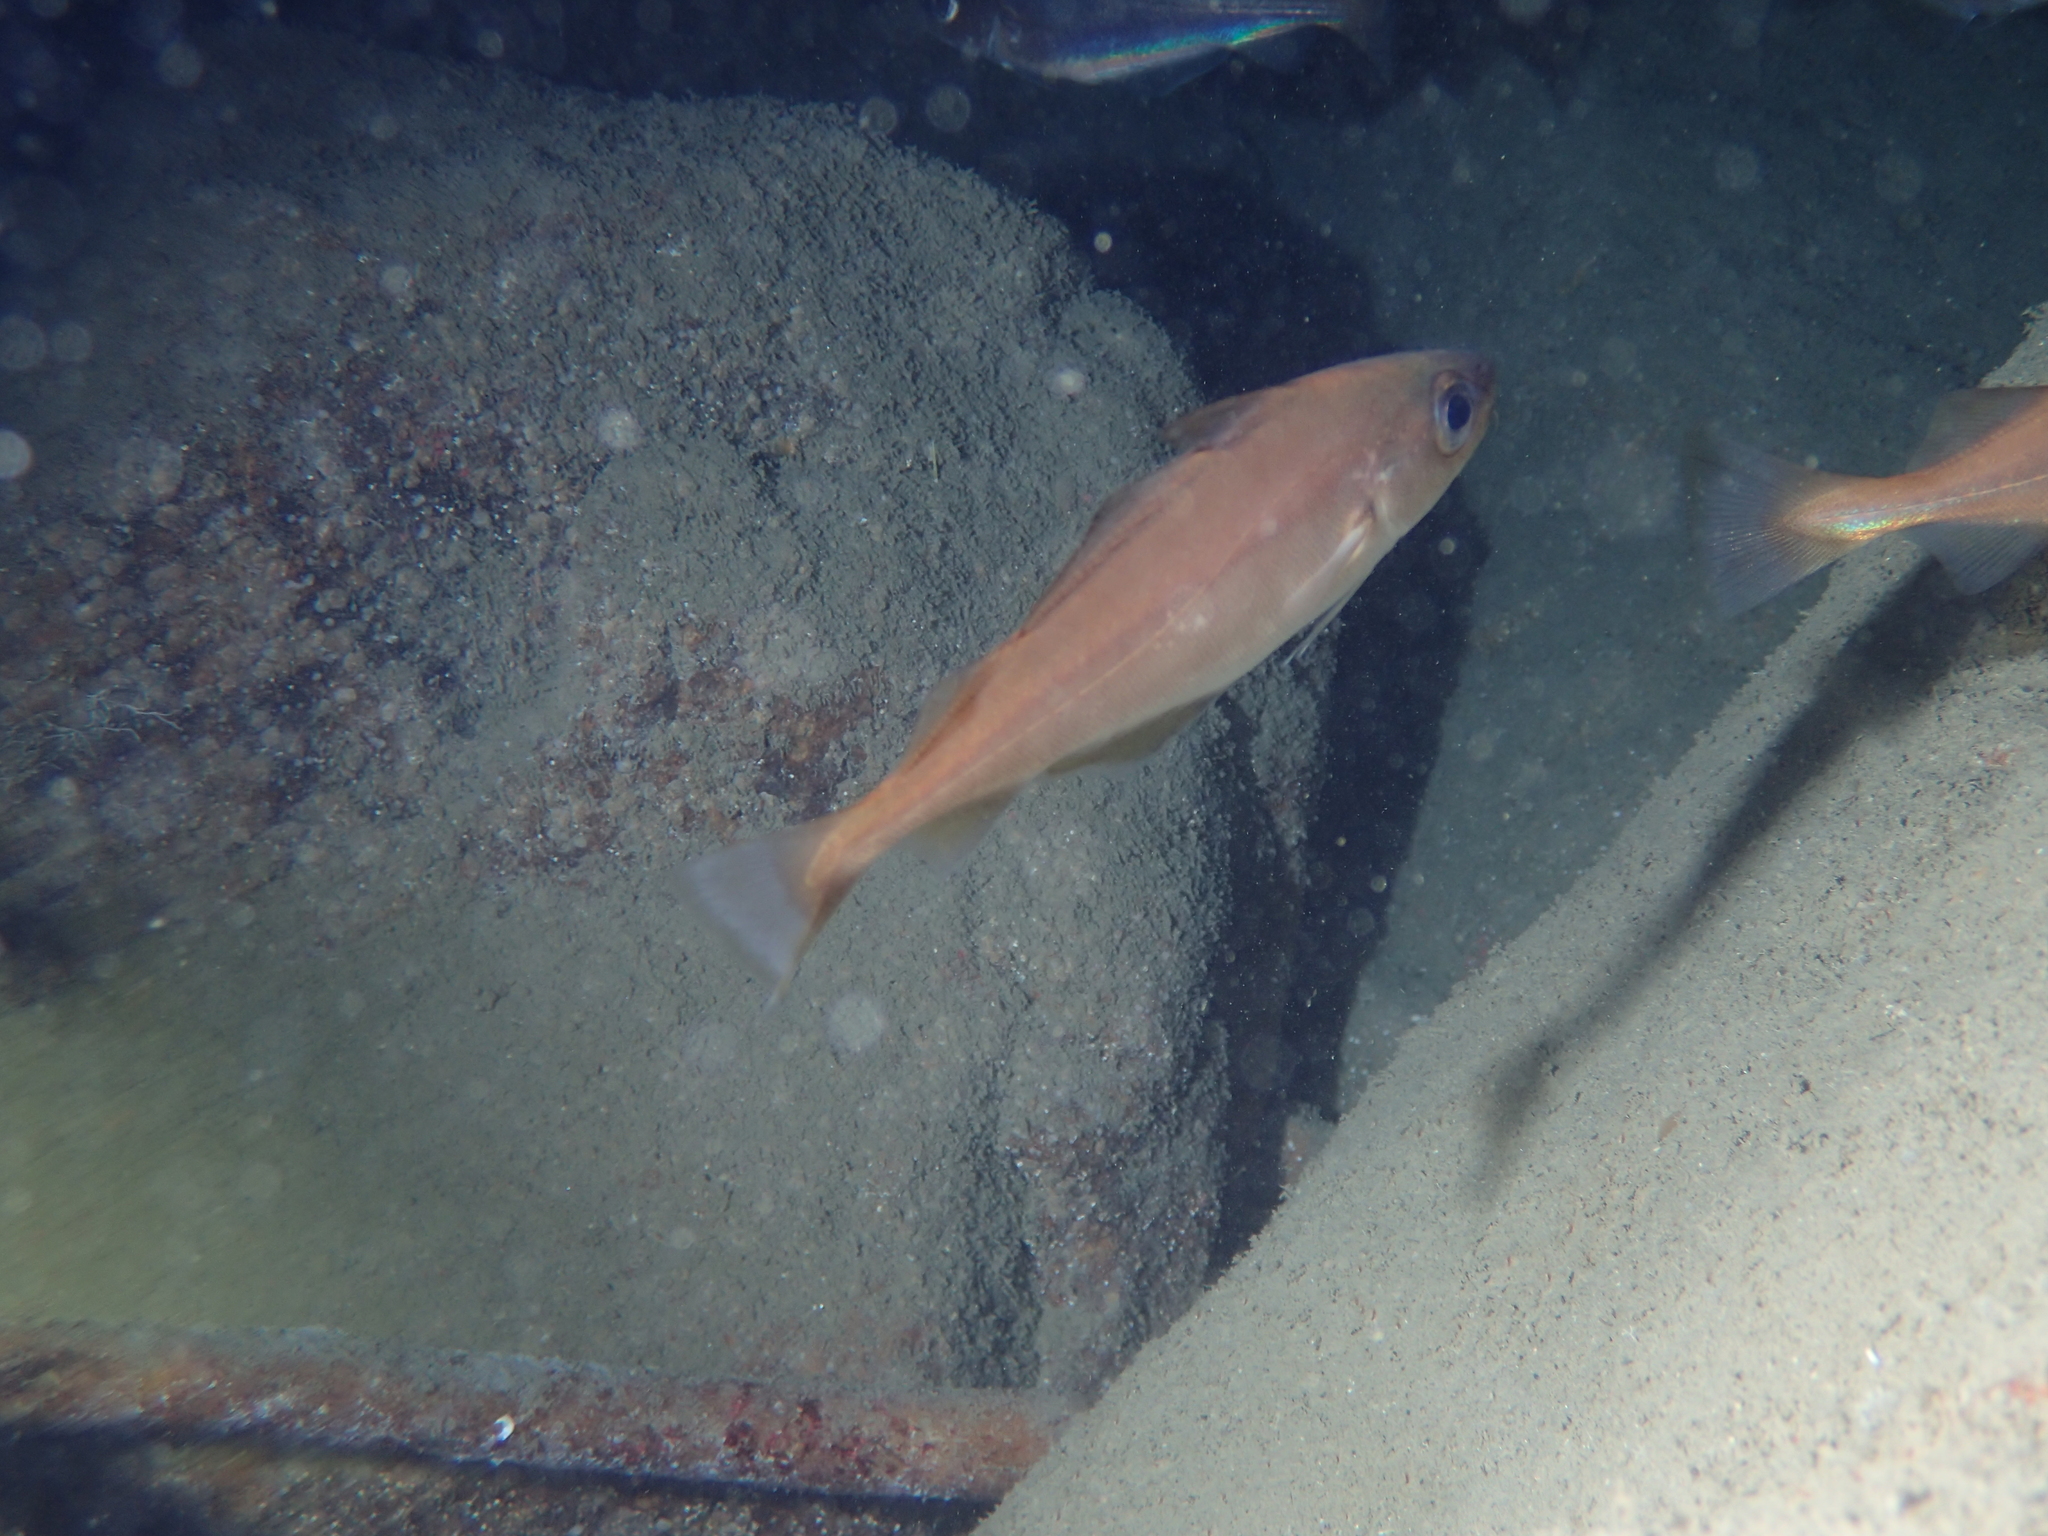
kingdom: Animalia
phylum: Chordata
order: Gadiformes
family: Gadidae
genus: Trisopterus
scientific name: Trisopterus minutus
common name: Poor cod
